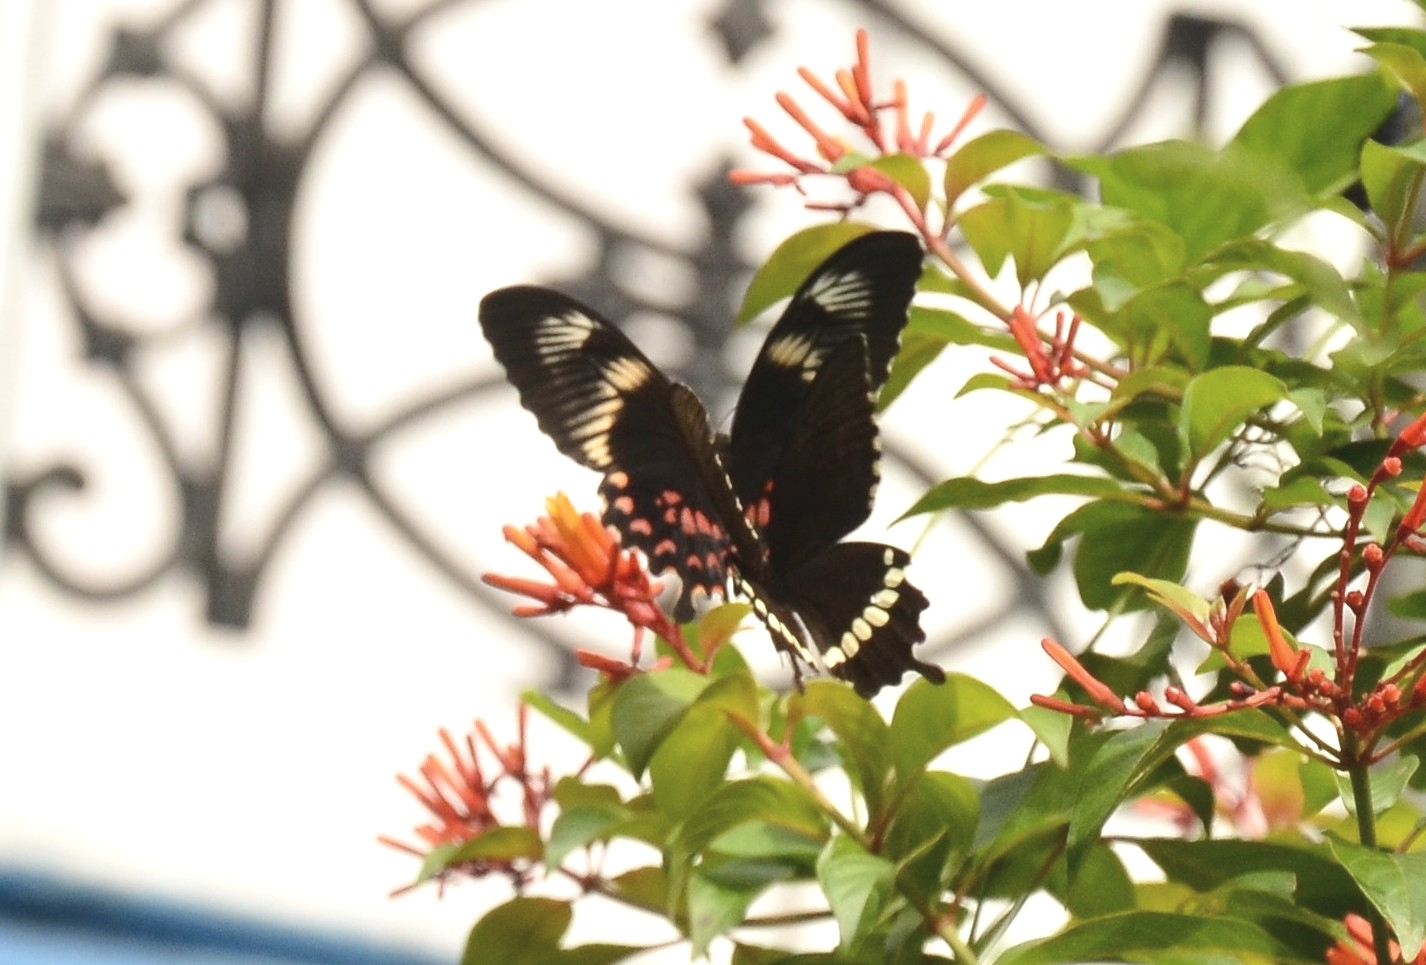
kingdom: Animalia
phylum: Arthropoda
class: Insecta
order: Lepidoptera
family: Papilionidae
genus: Papilio
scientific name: Papilio polytes
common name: Common mormon
